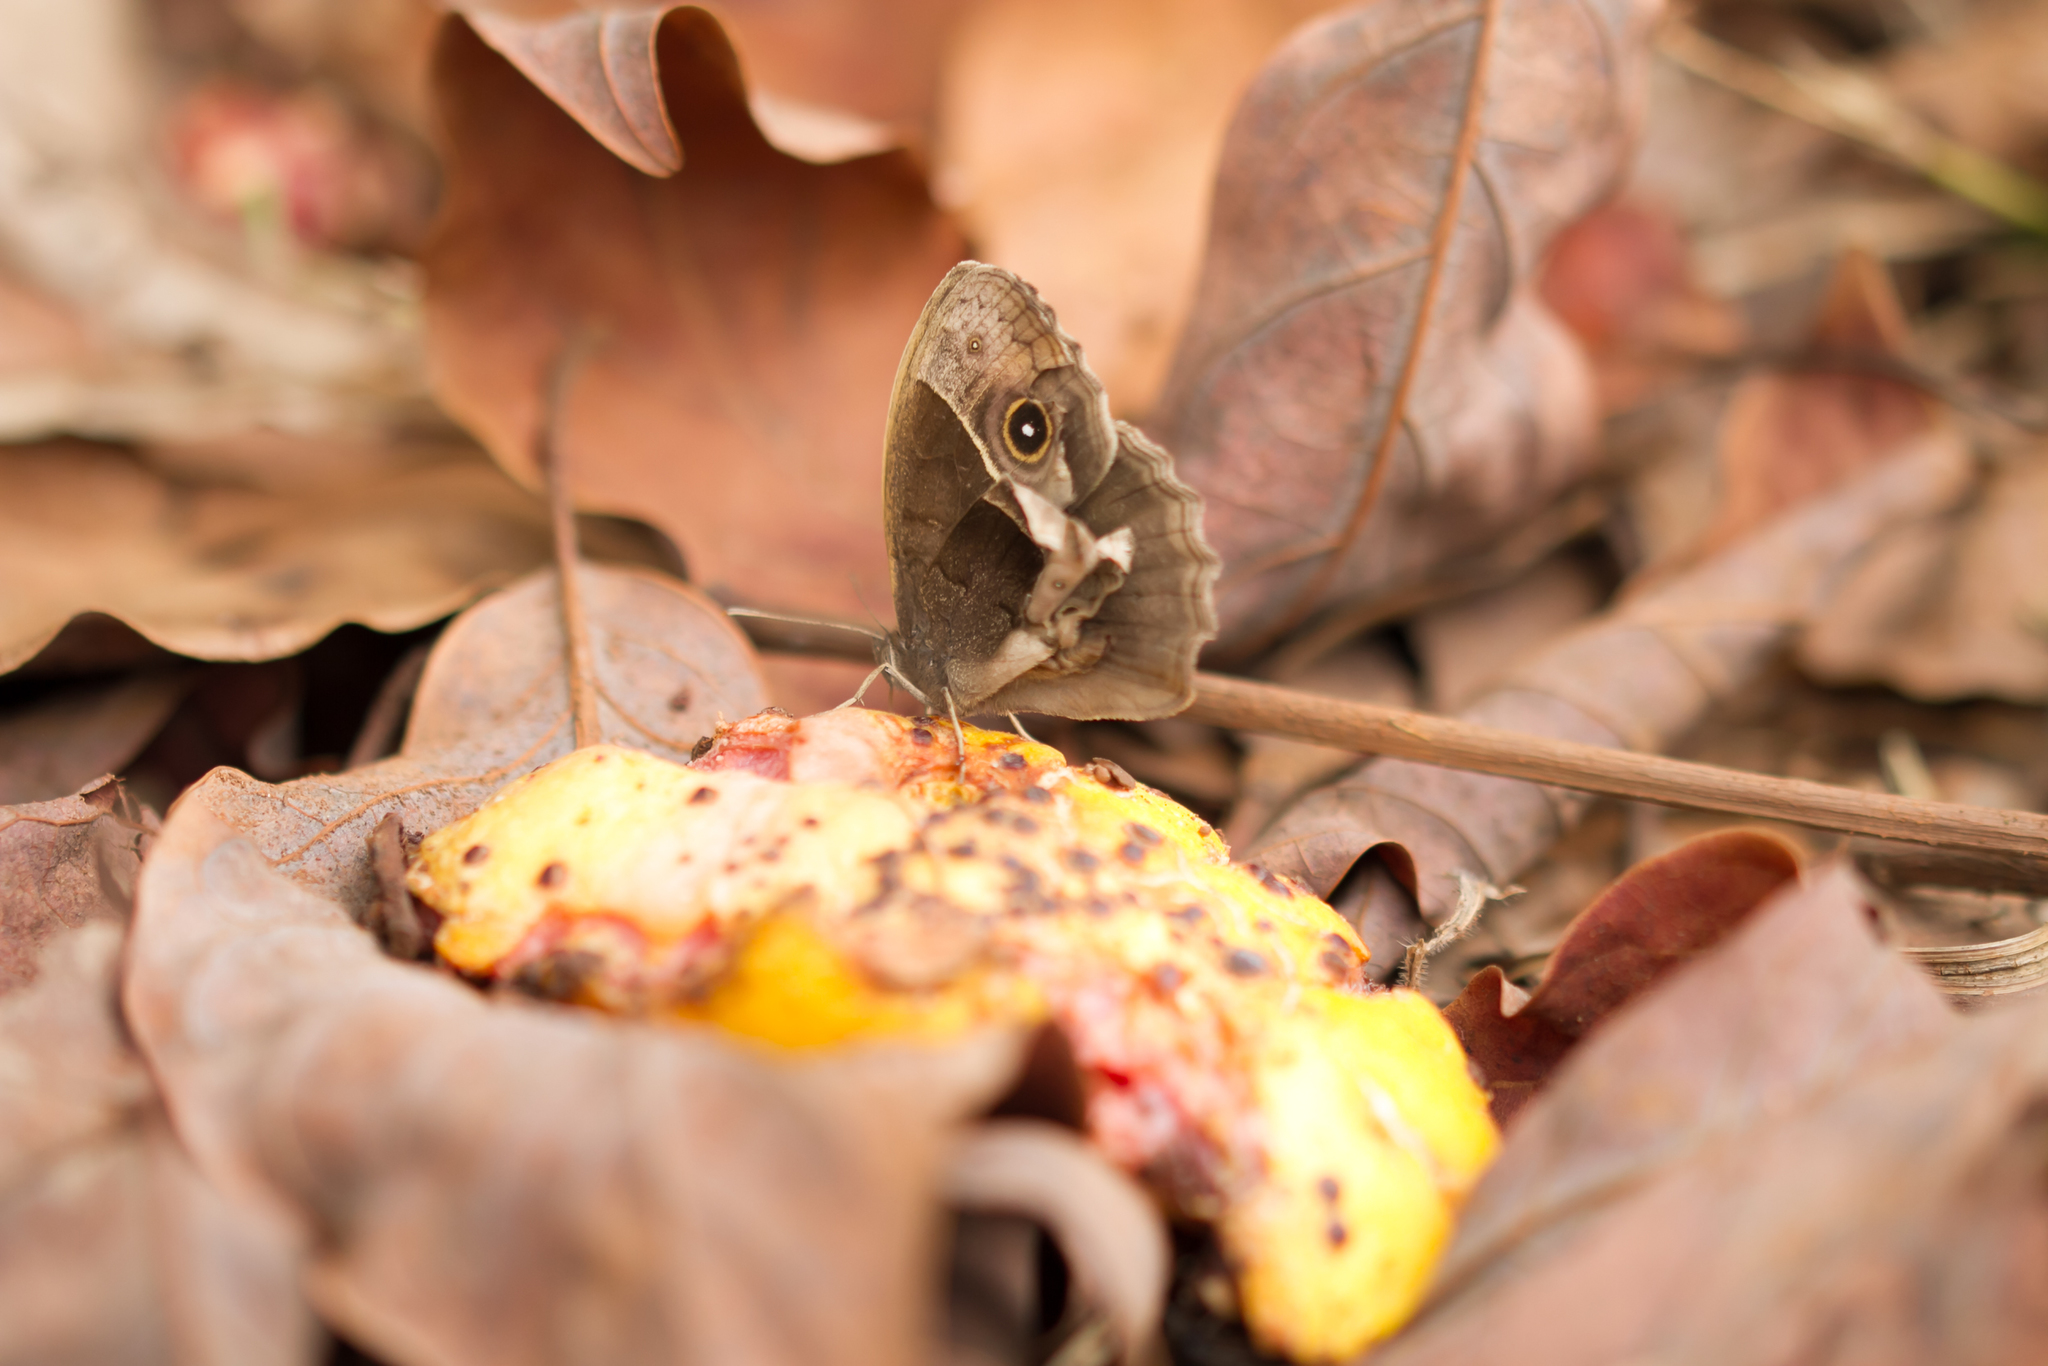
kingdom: Animalia
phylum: Arthropoda
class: Insecta
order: Lepidoptera
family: Nymphalidae
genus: Mycalesis
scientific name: Mycalesis rhacotis
